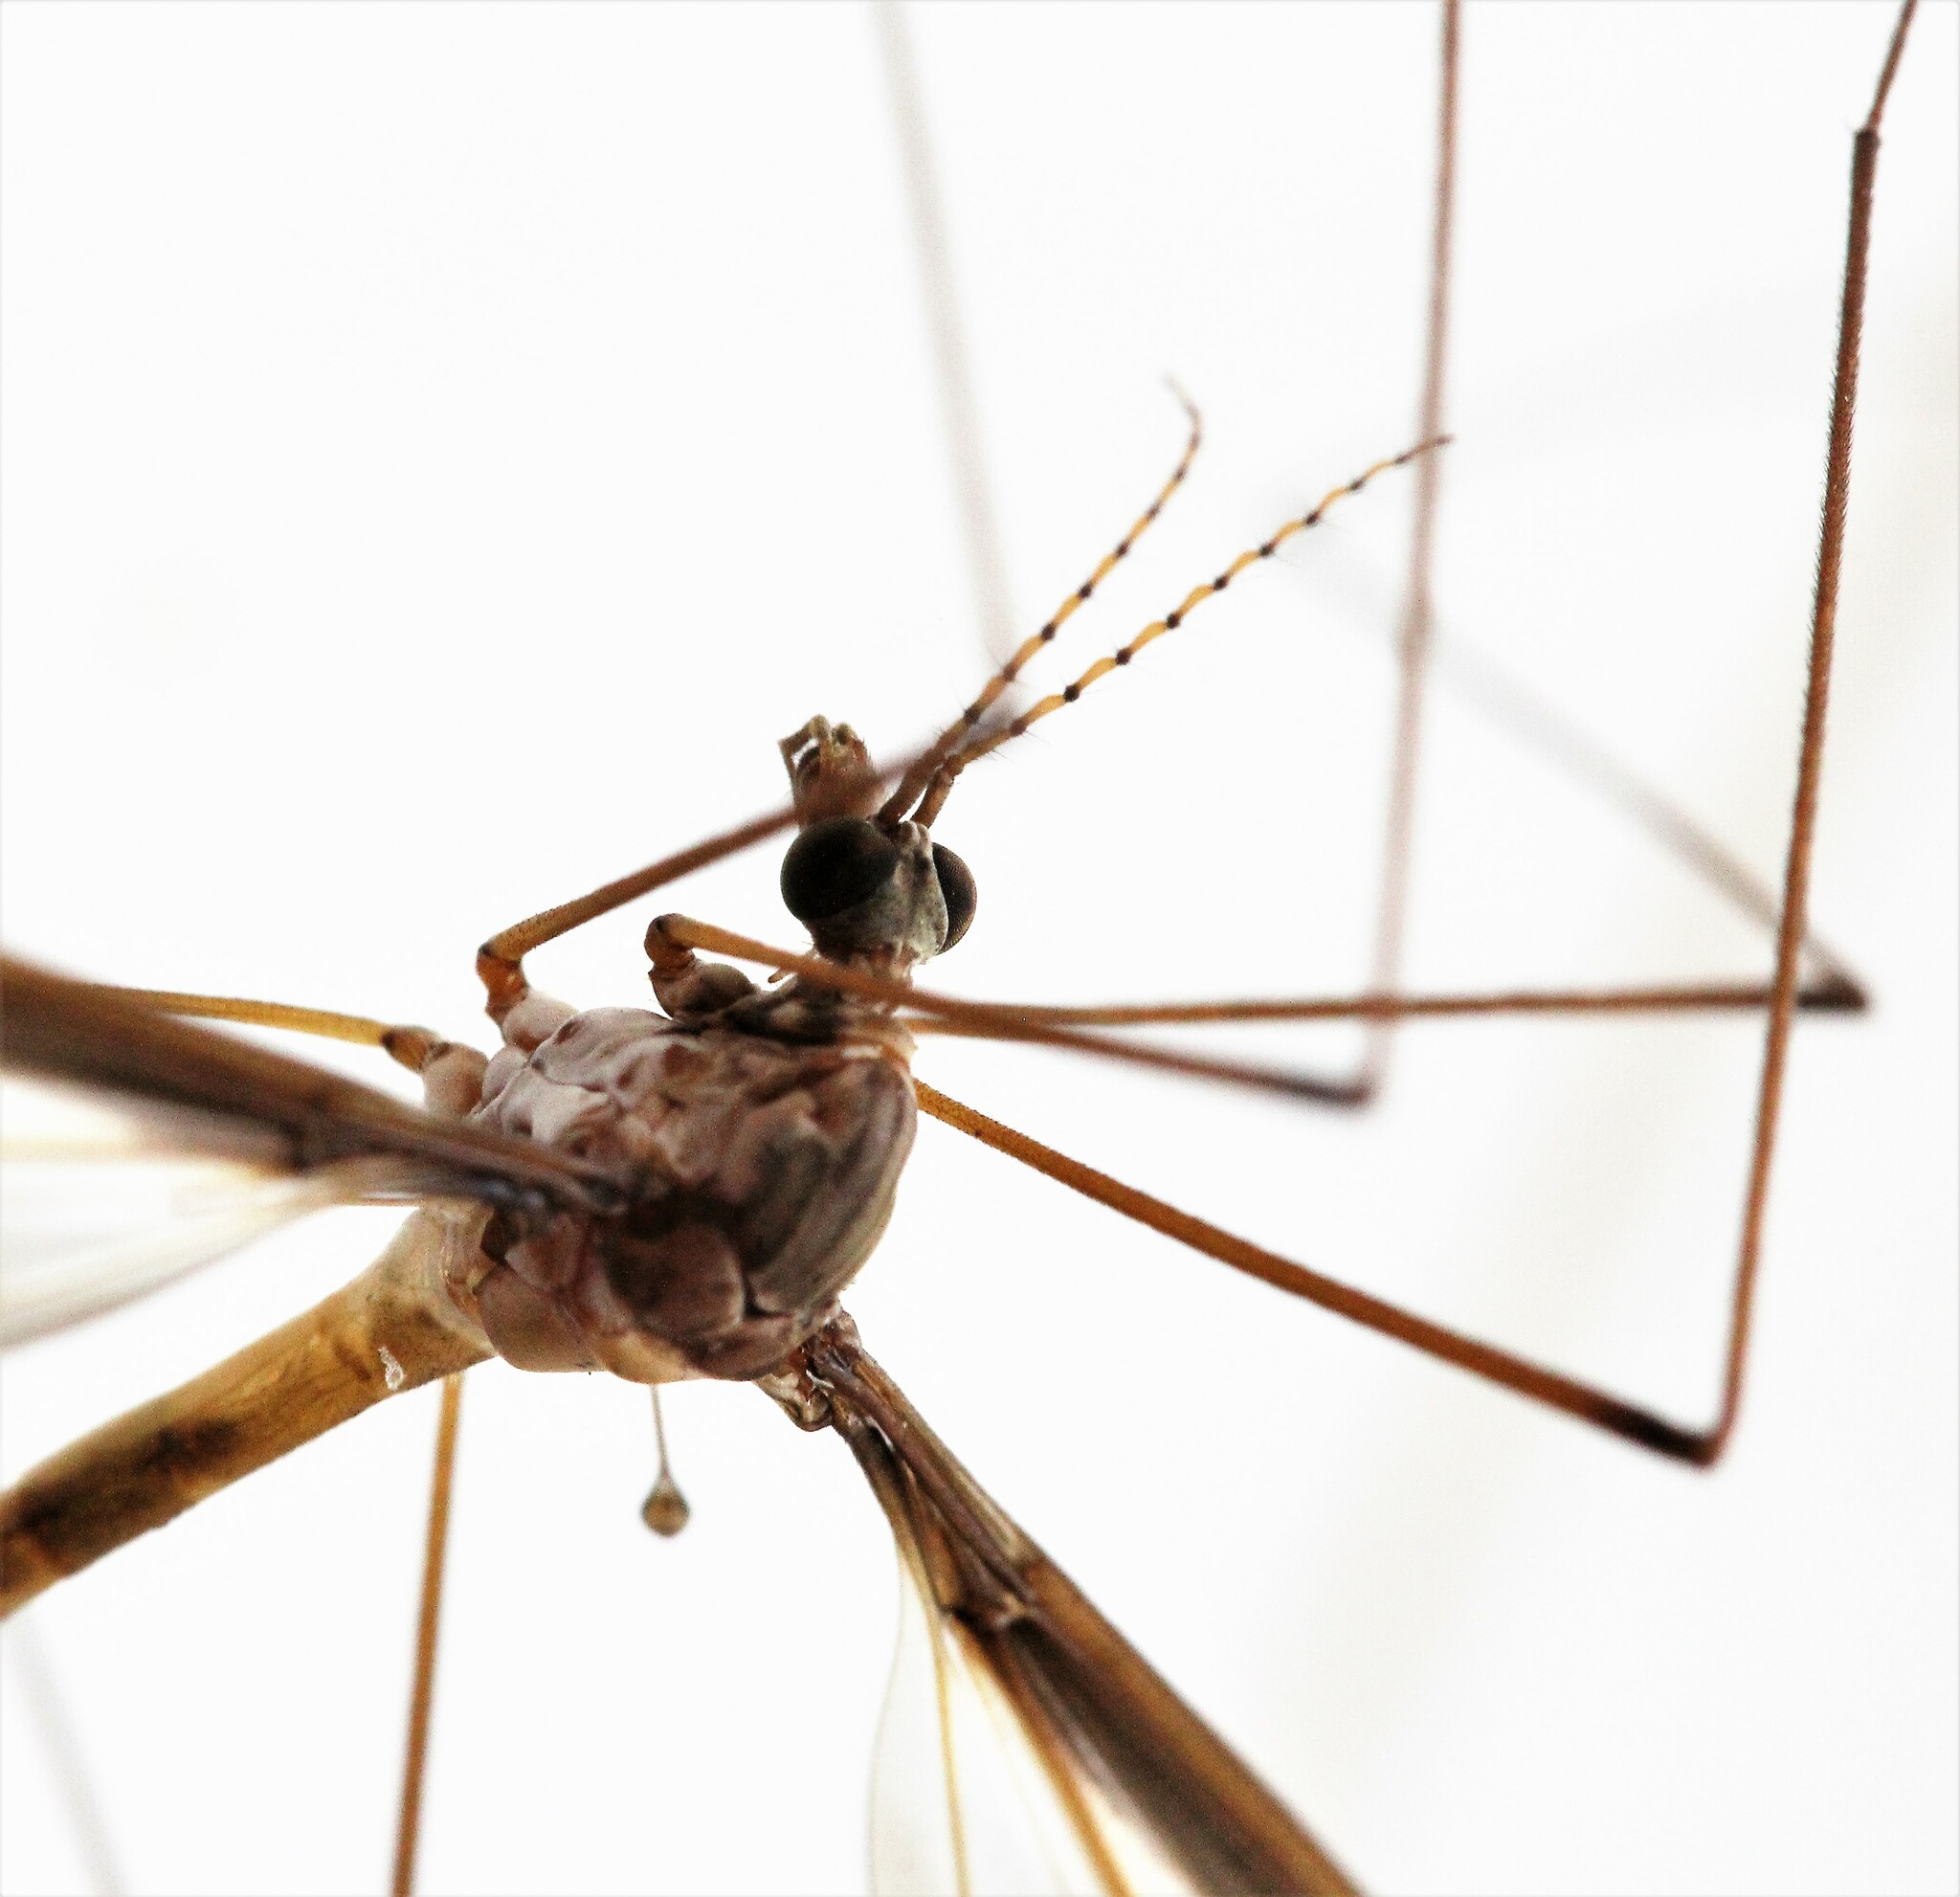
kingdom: Animalia
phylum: Arthropoda
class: Insecta
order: Diptera
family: Tipulidae
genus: Tipula
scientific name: Tipula tricolor
